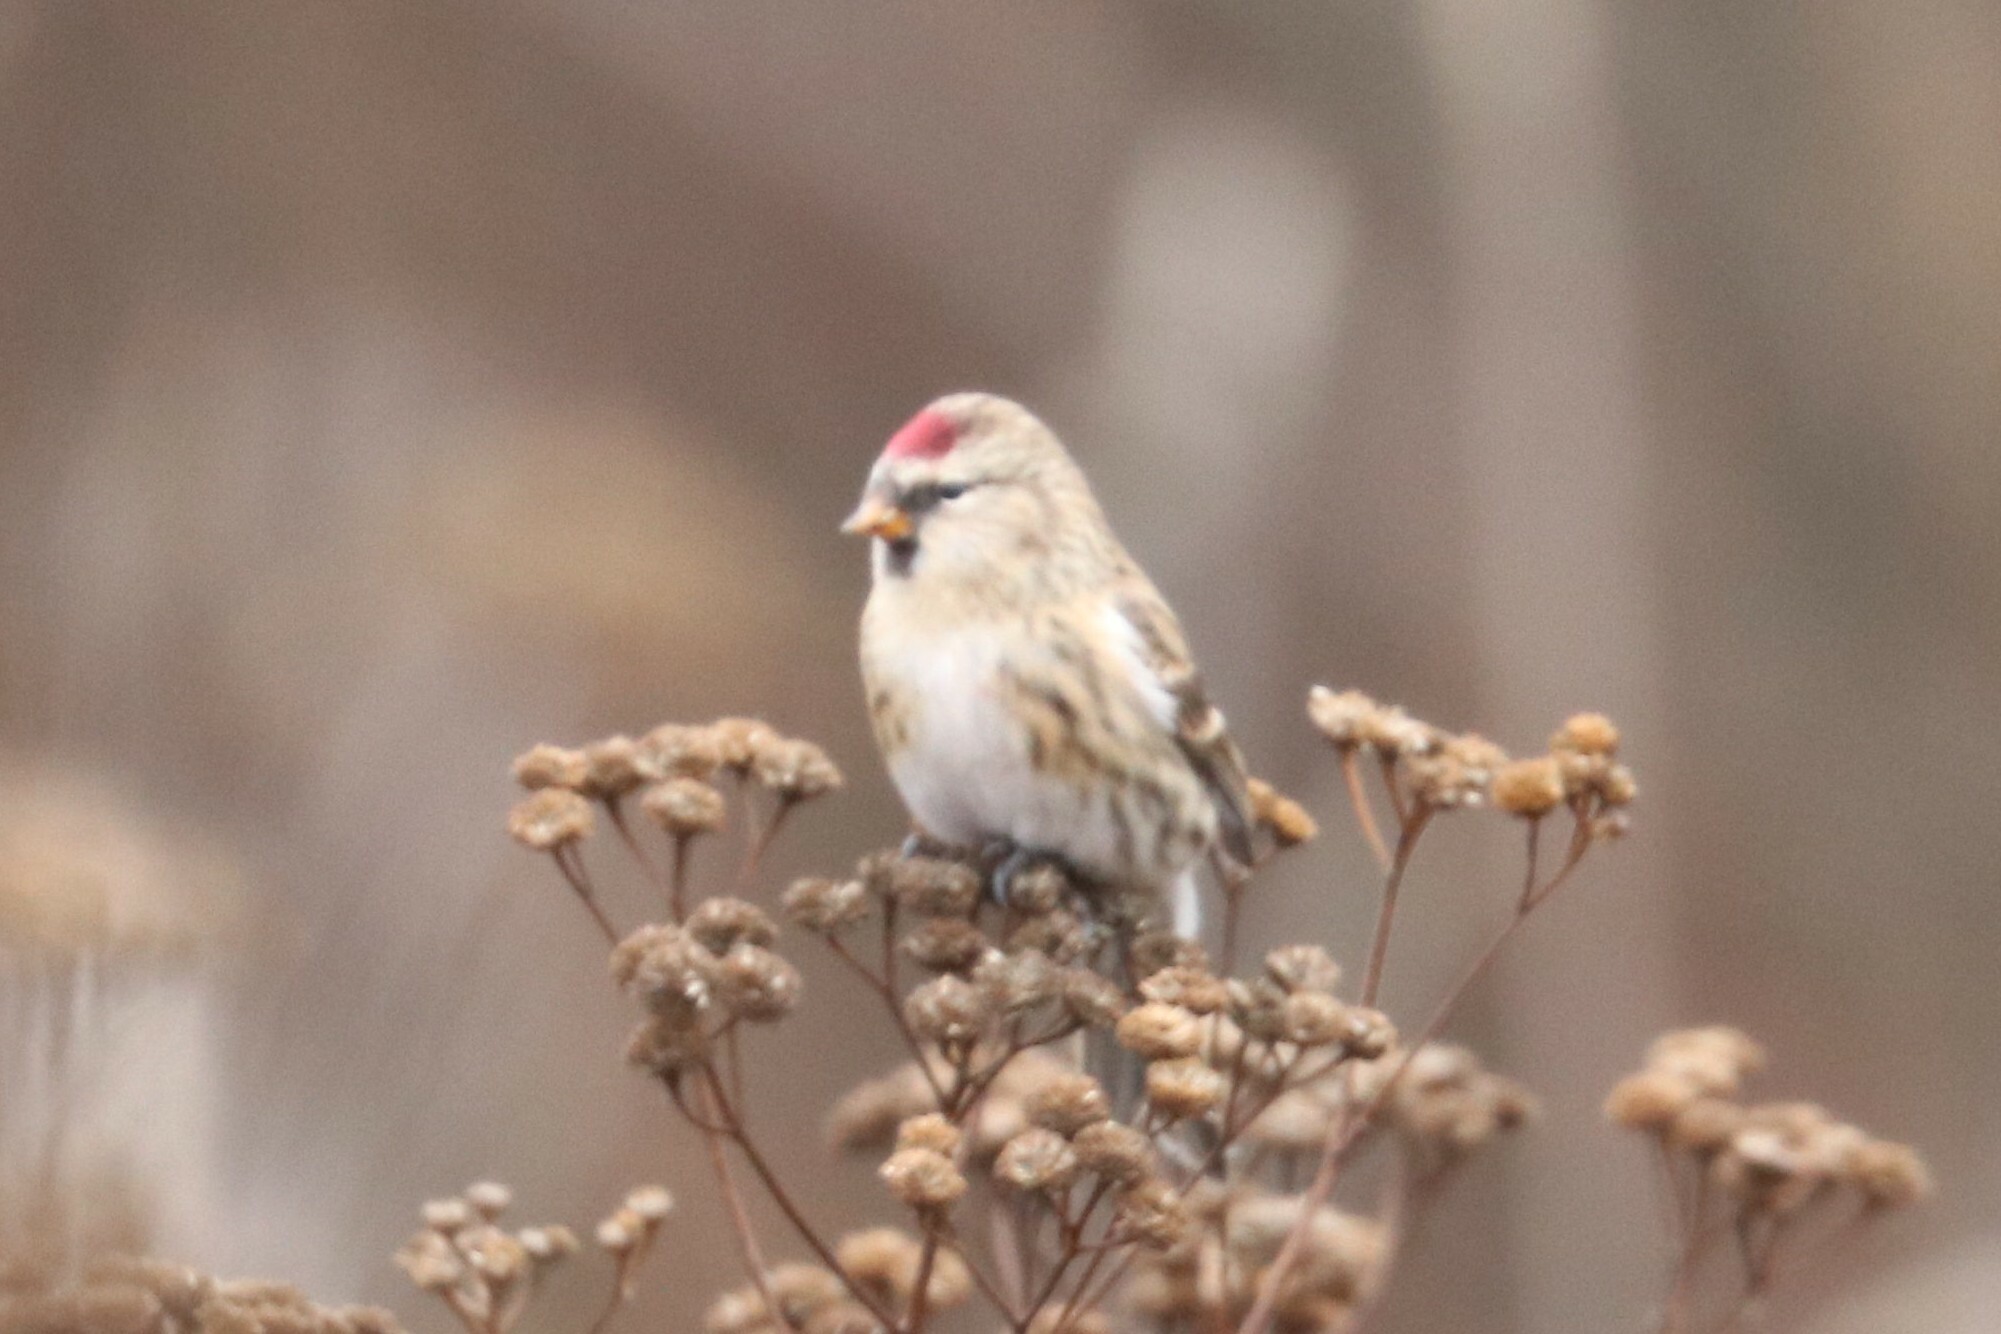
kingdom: Animalia
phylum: Chordata
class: Aves
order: Passeriformes
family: Fringillidae
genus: Acanthis
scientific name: Acanthis flammea
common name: Common redpoll
